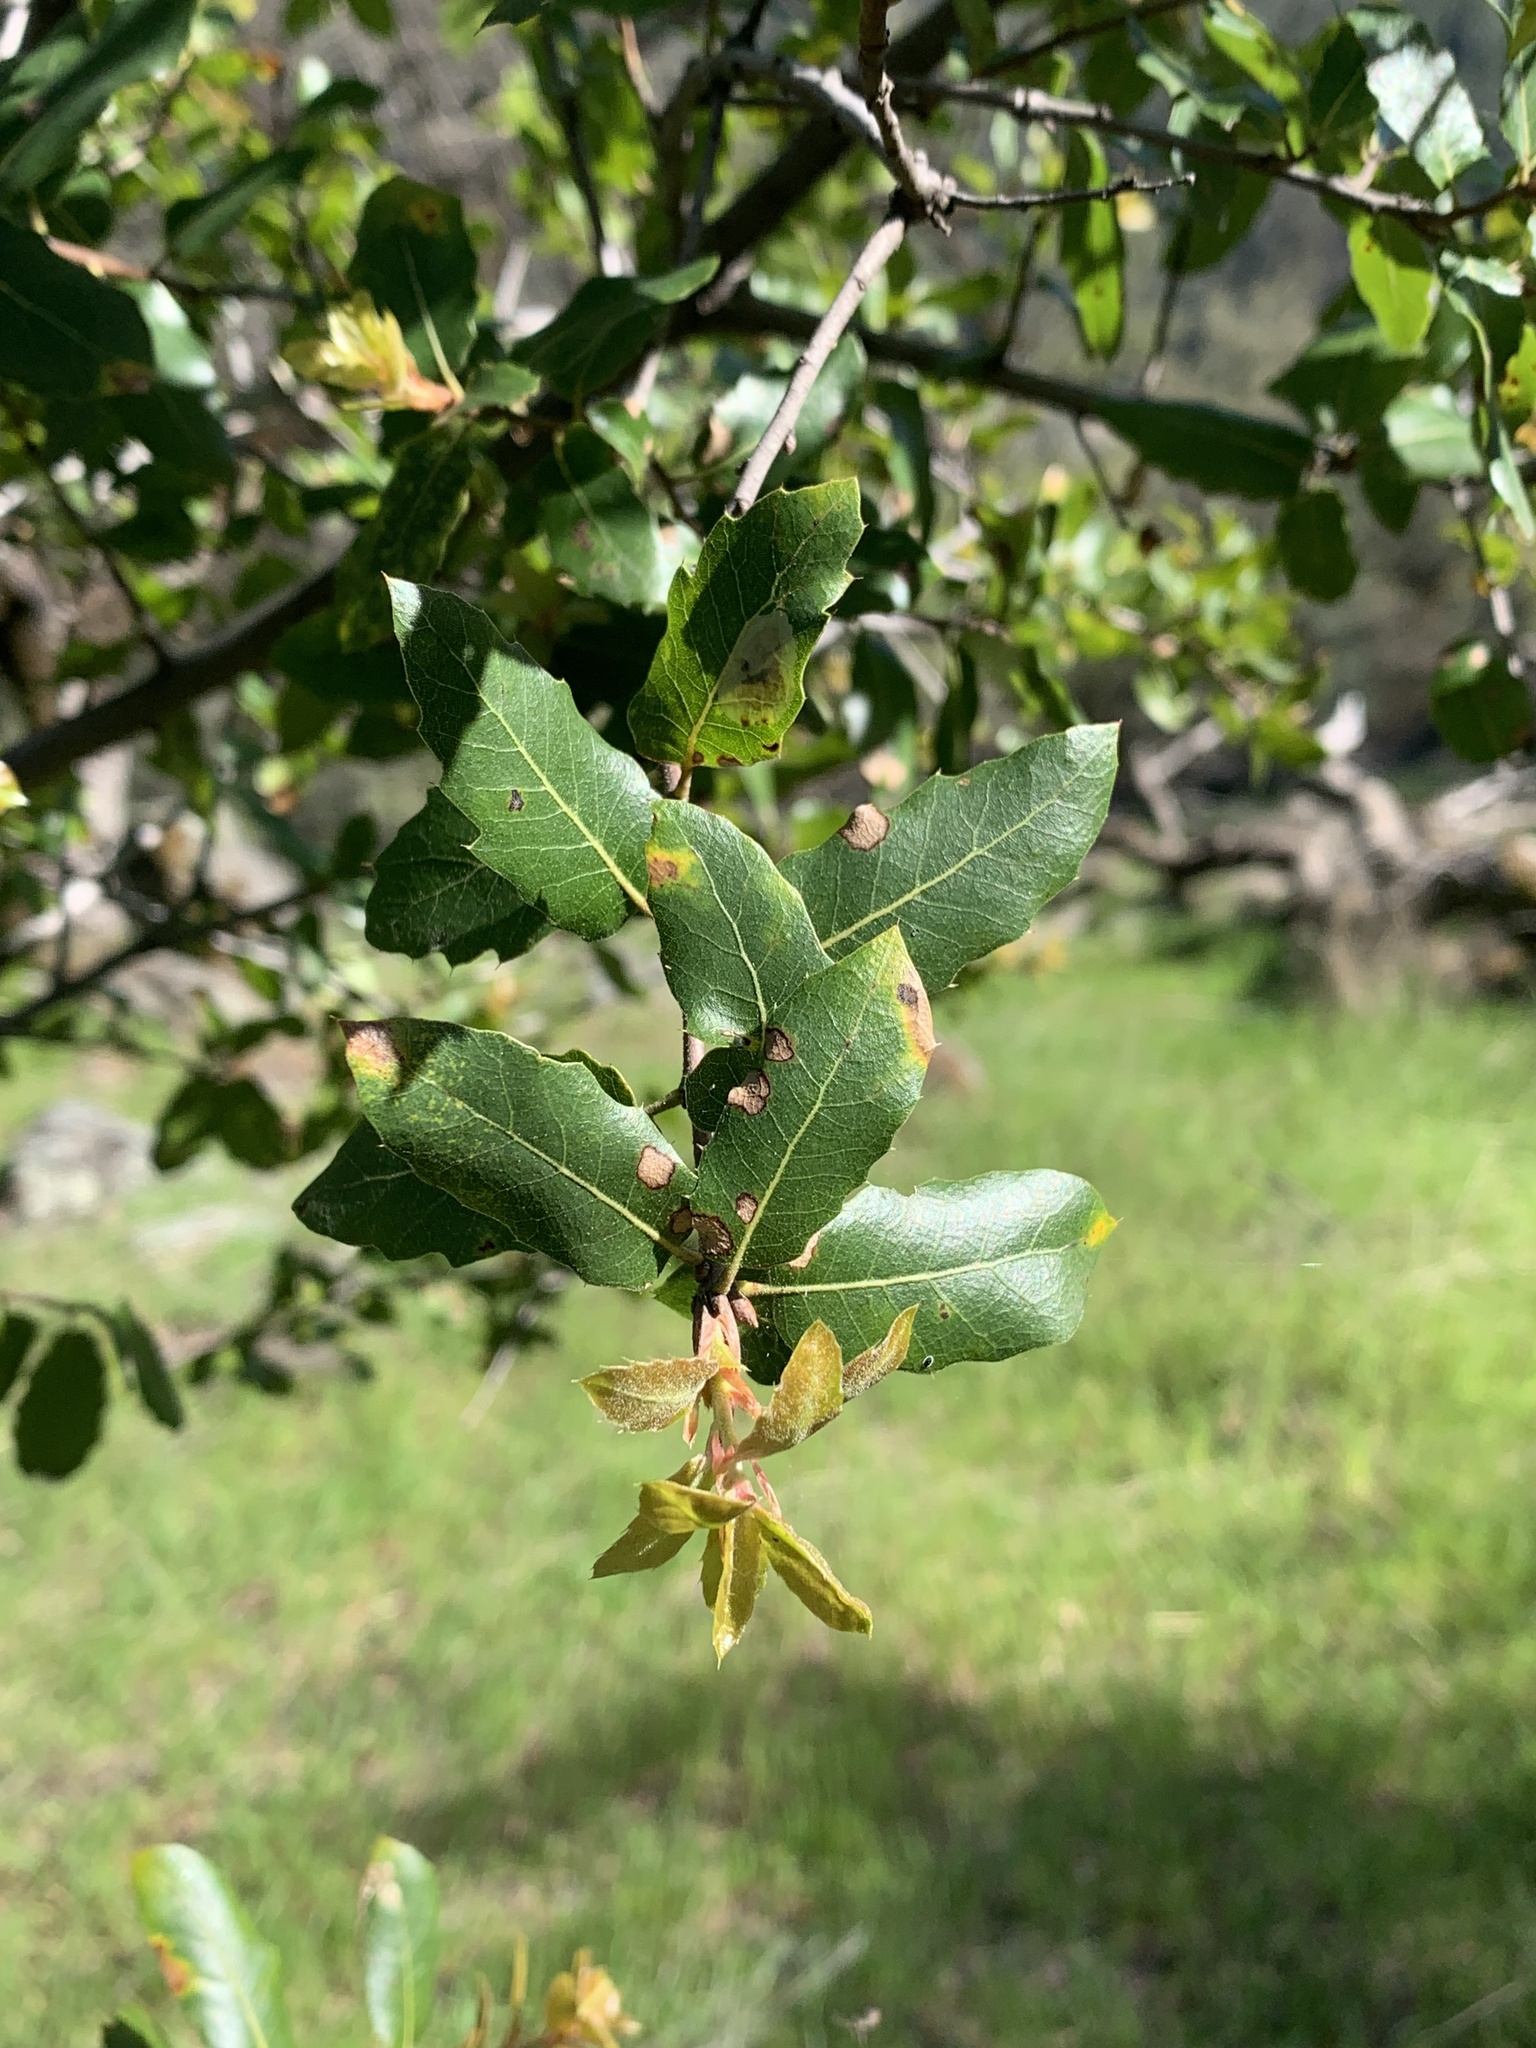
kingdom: Plantae
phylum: Tracheophyta
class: Magnoliopsida
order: Fagales
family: Fagaceae
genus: Quercus
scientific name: Quercus wislizeni
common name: Interior live oak
